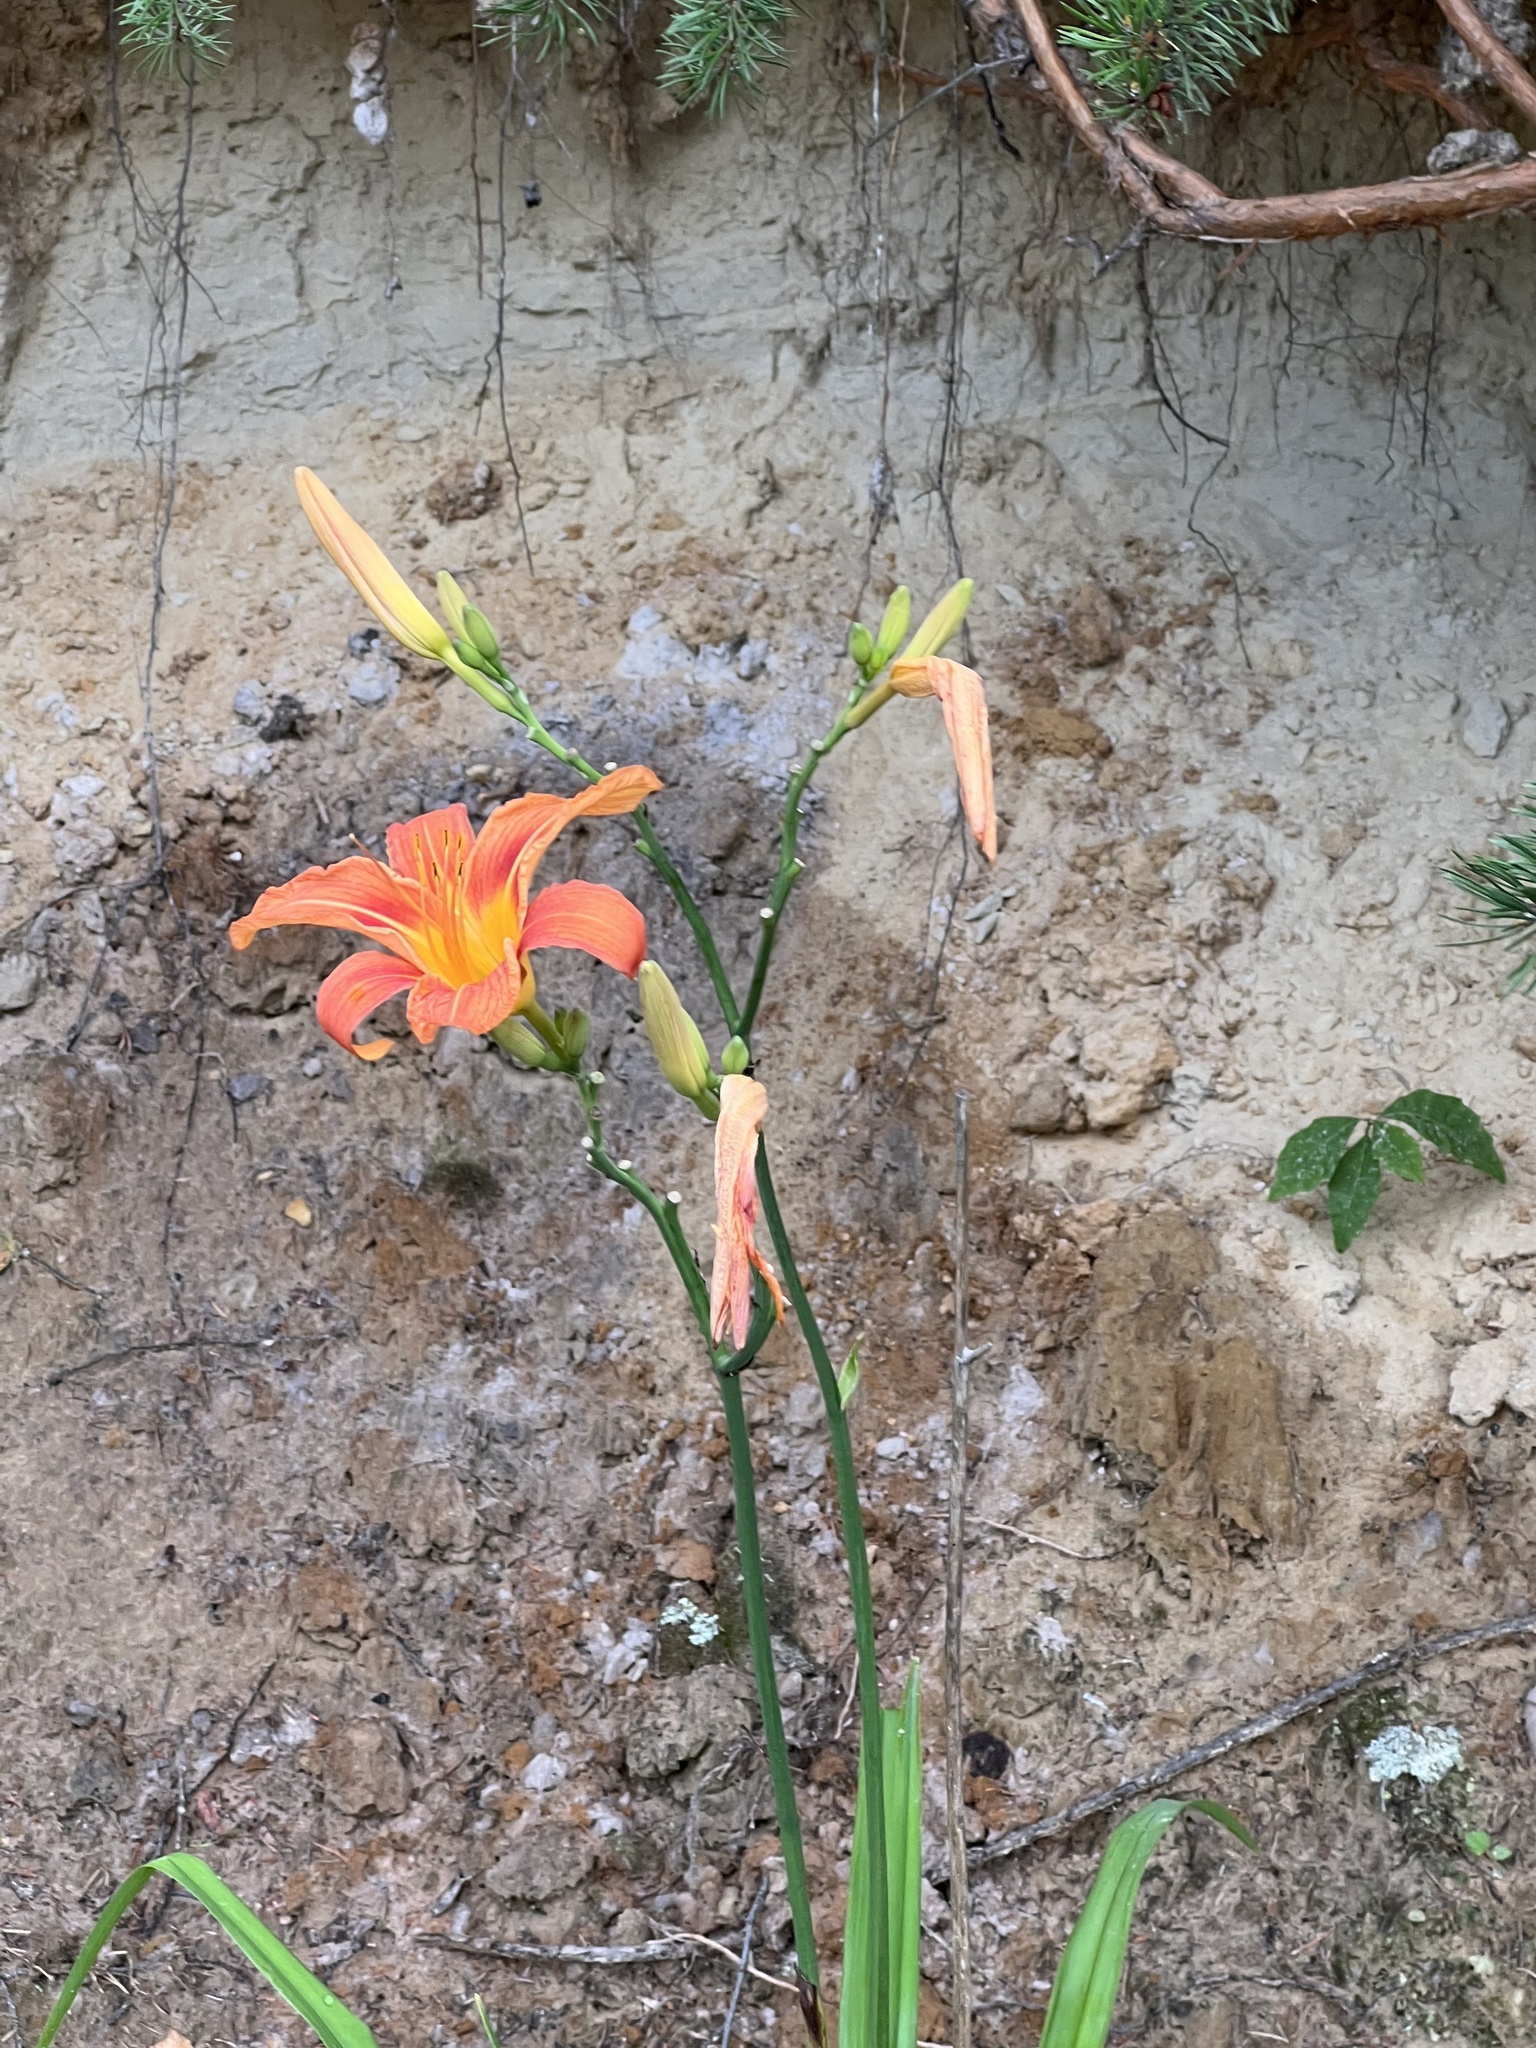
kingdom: Plantae
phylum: Tracheophyta
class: Liliopsida
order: Asparagales
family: Asphodelaceae
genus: Hemerocallis
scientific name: Hemerocallis fulva
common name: Orange day-lily
